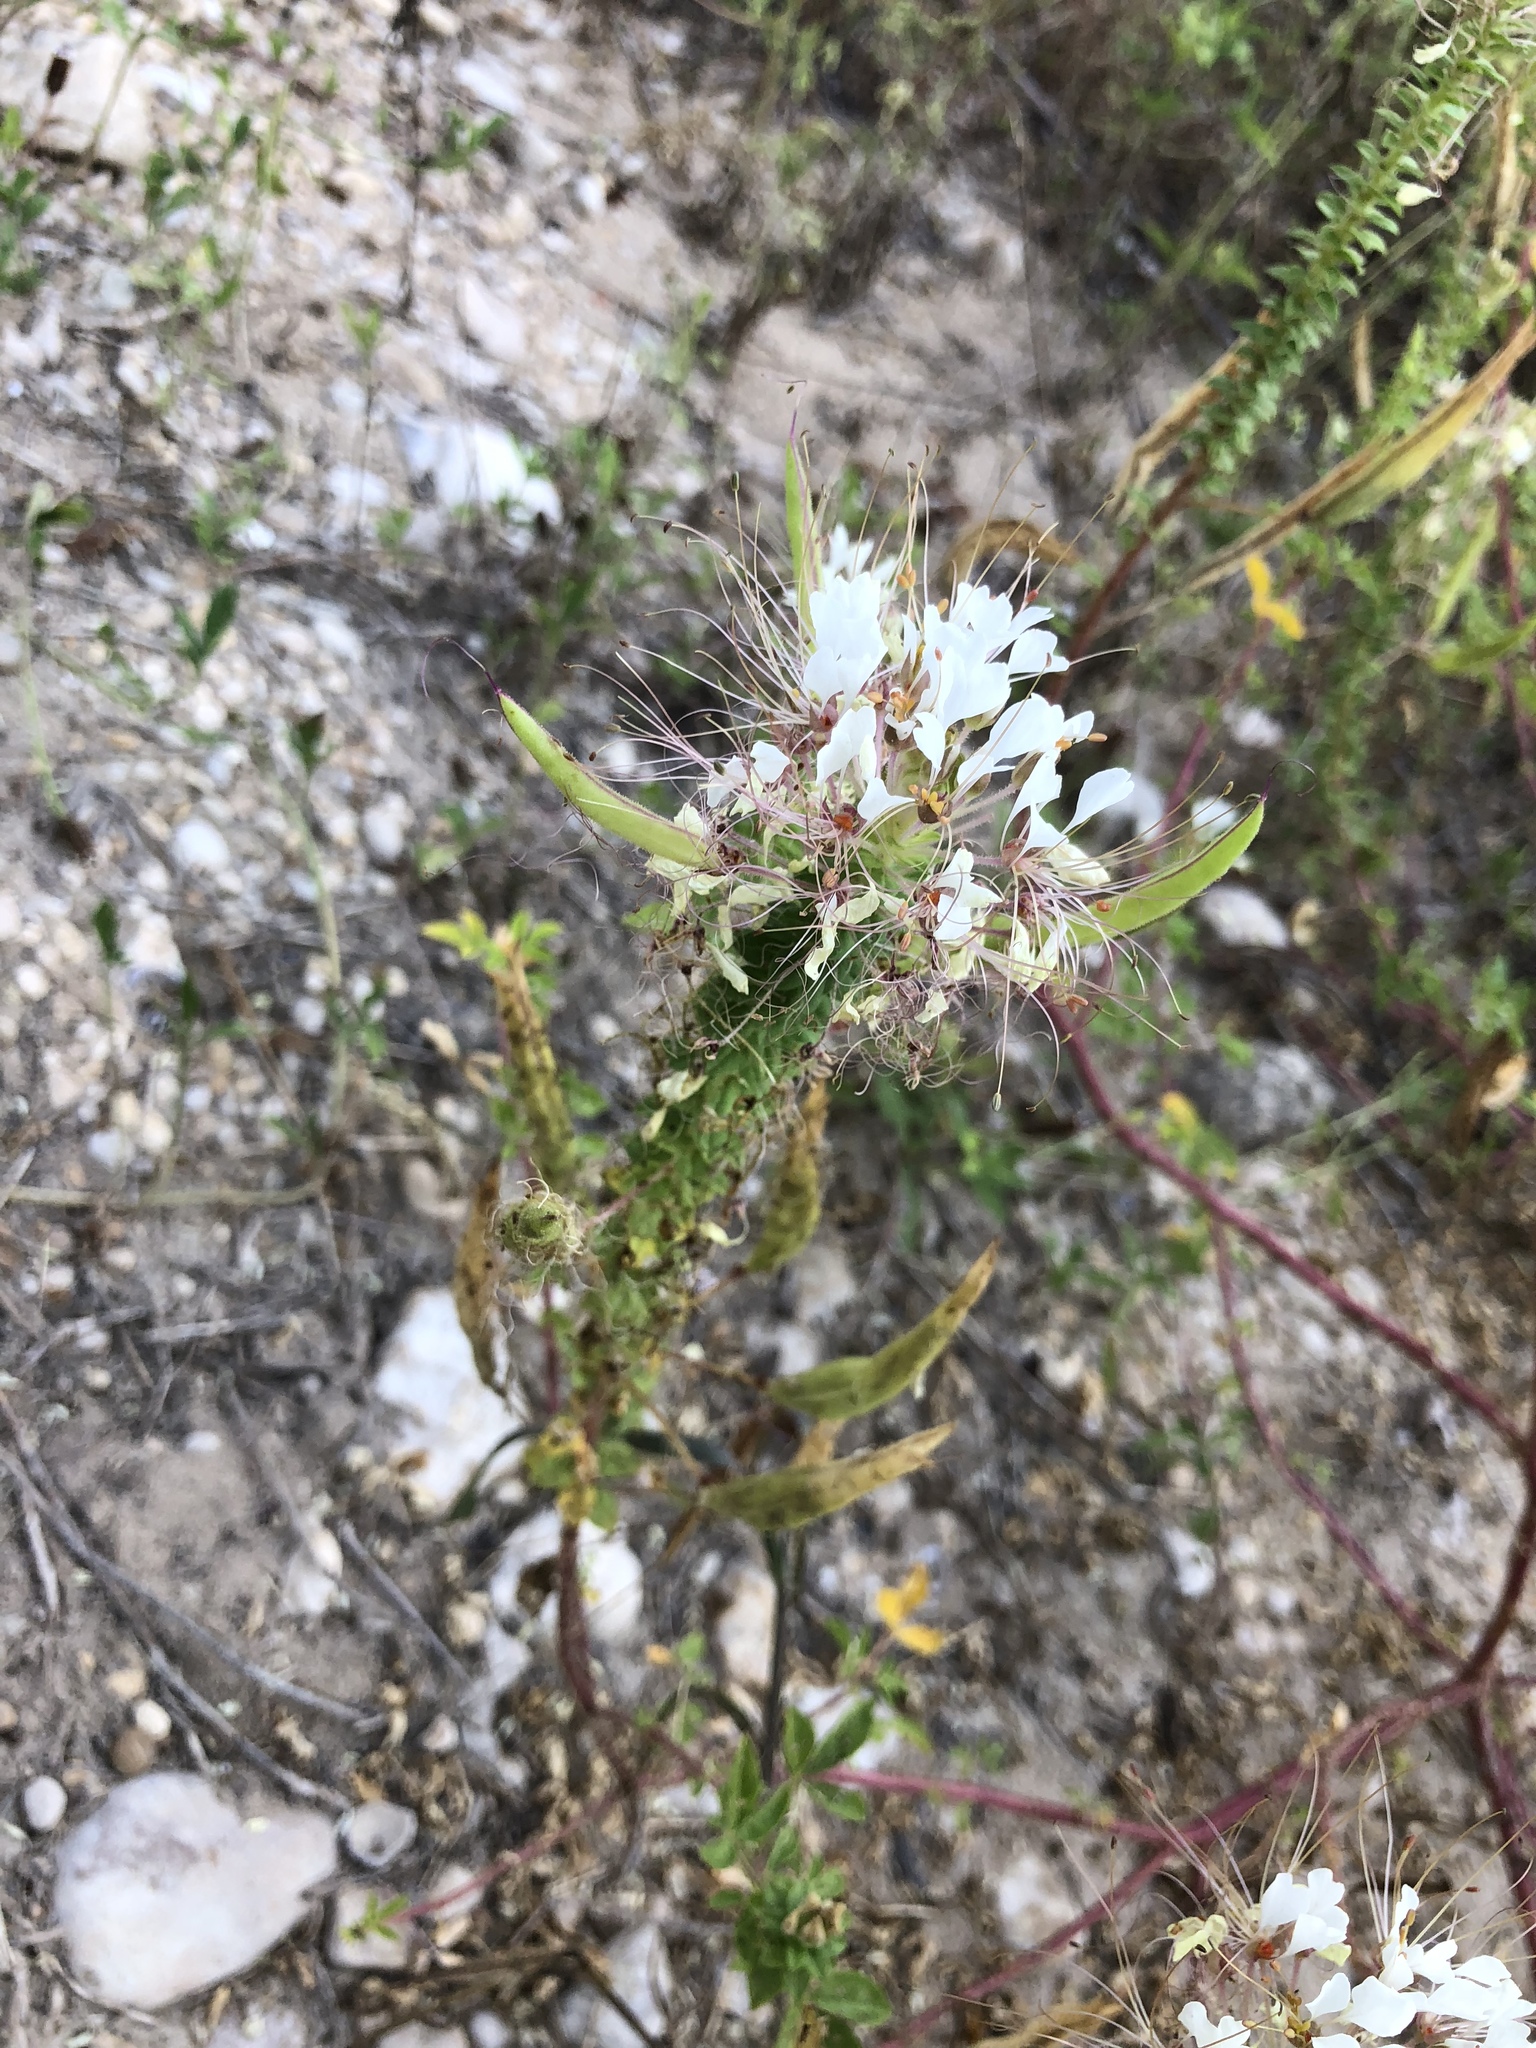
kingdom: Plantae
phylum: Tracheophyta
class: Magnoliopsida
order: Brassicales
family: Cleomaceae
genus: Polanisia
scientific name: Polanisia dodecandra
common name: Clammyweed
